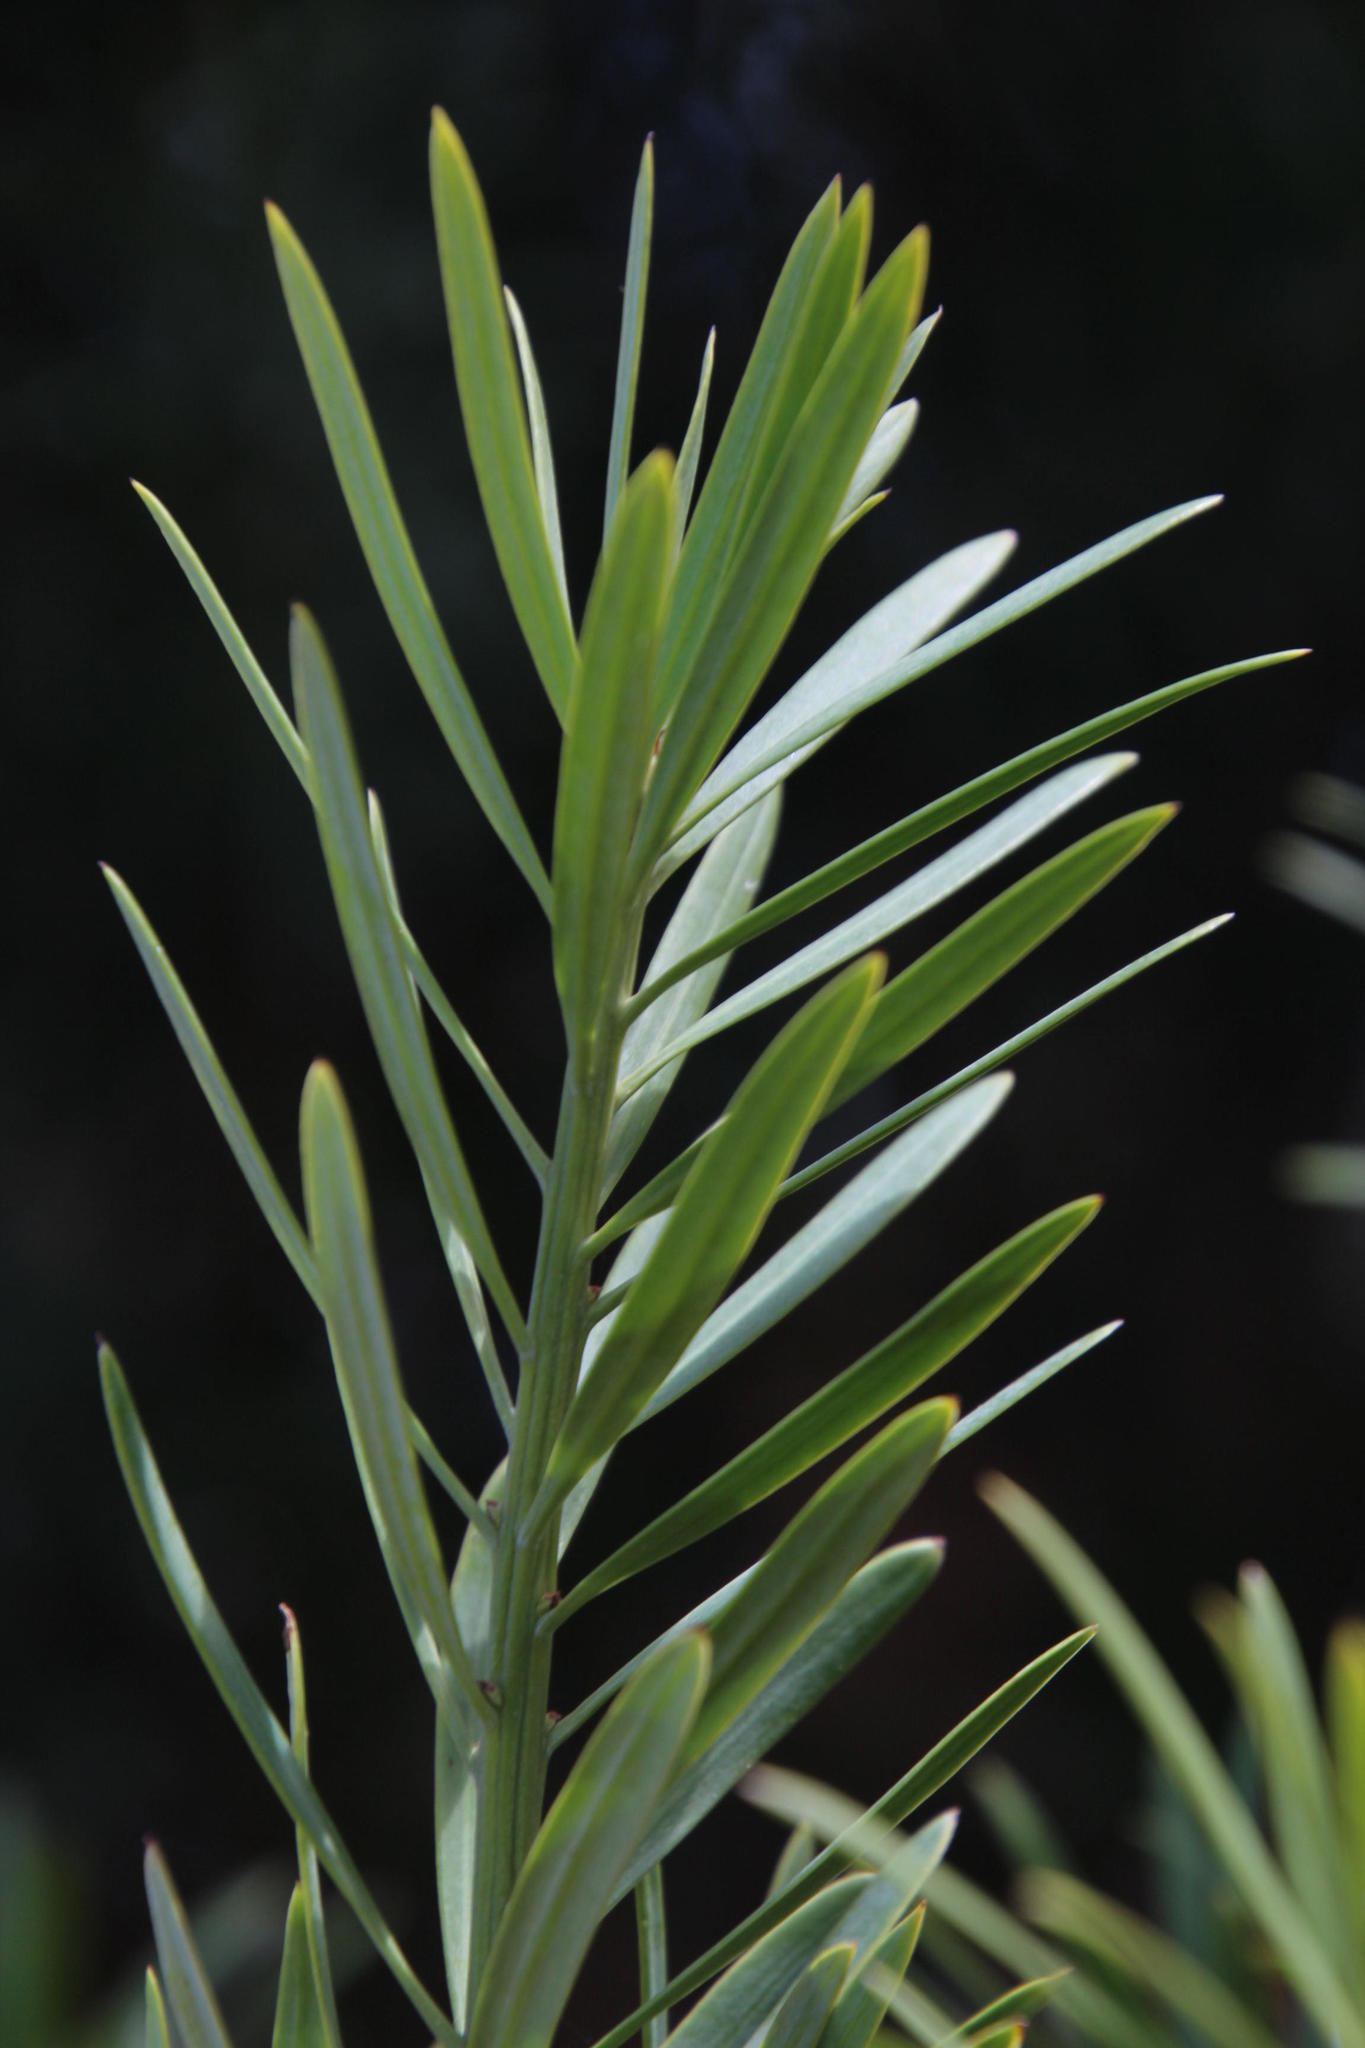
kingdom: Plantae
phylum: Tracheophyta
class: Pinopsida
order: Pinales
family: Podocarpaceae
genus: Podocarpus
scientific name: Podocarpus latifolius
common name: True yellowwood
